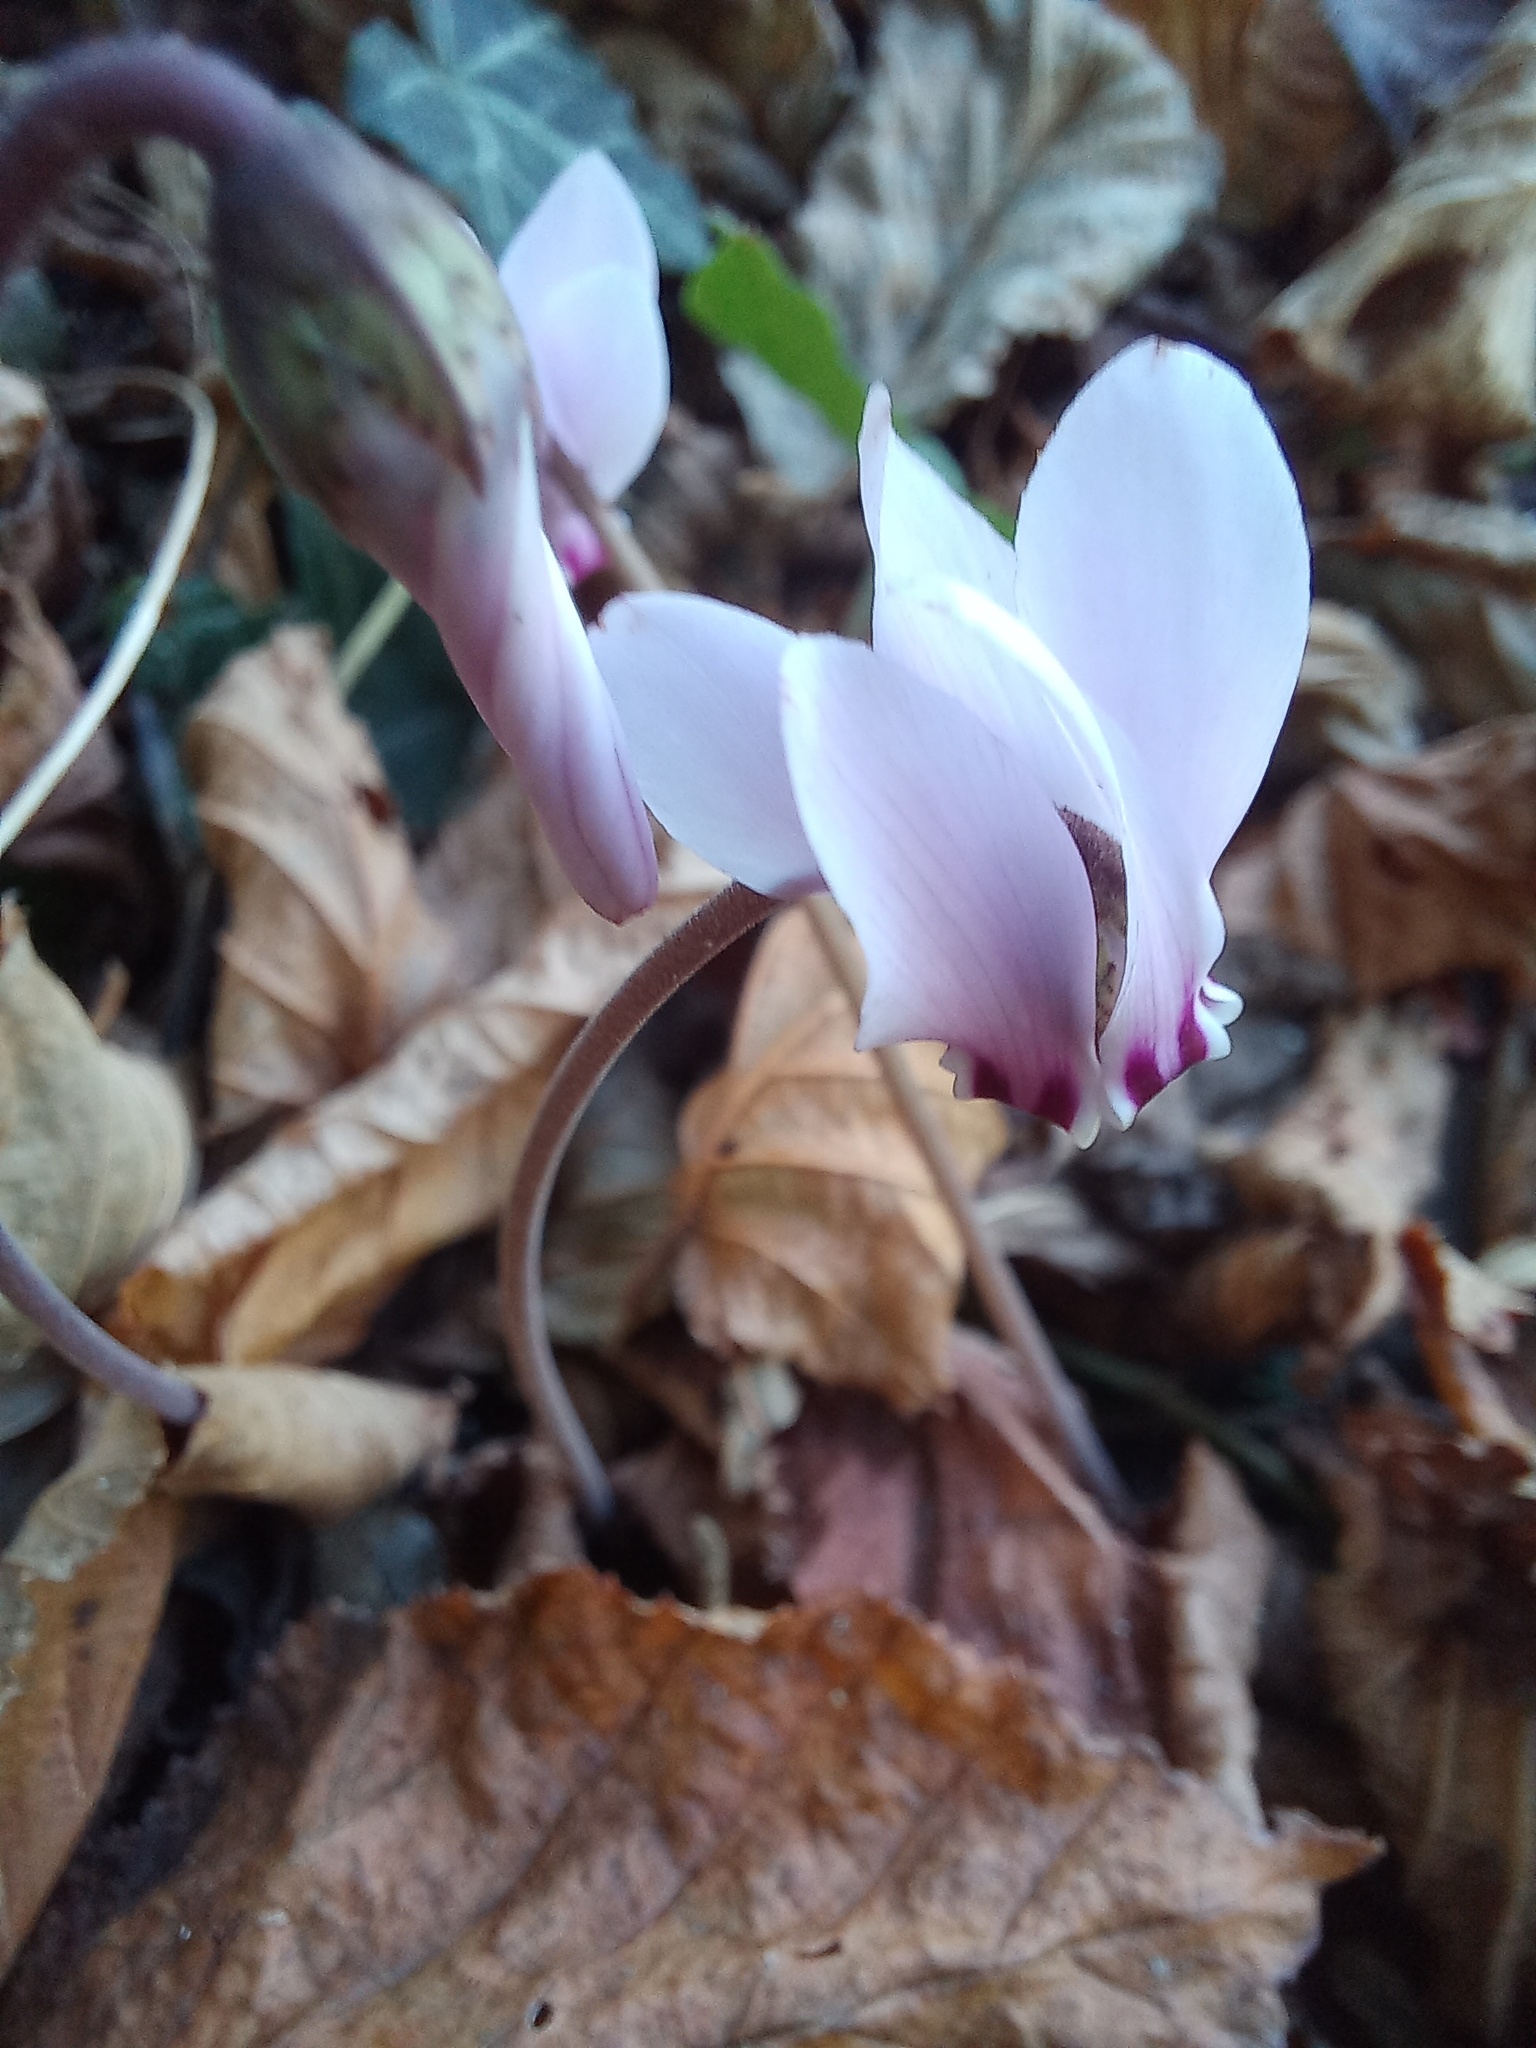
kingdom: Plantae
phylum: Tracheophyta
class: Magnoliopsida
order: Ericales
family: Primulaceae
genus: Cyclamen
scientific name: Cyclamen hederifolium
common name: Sowbread
